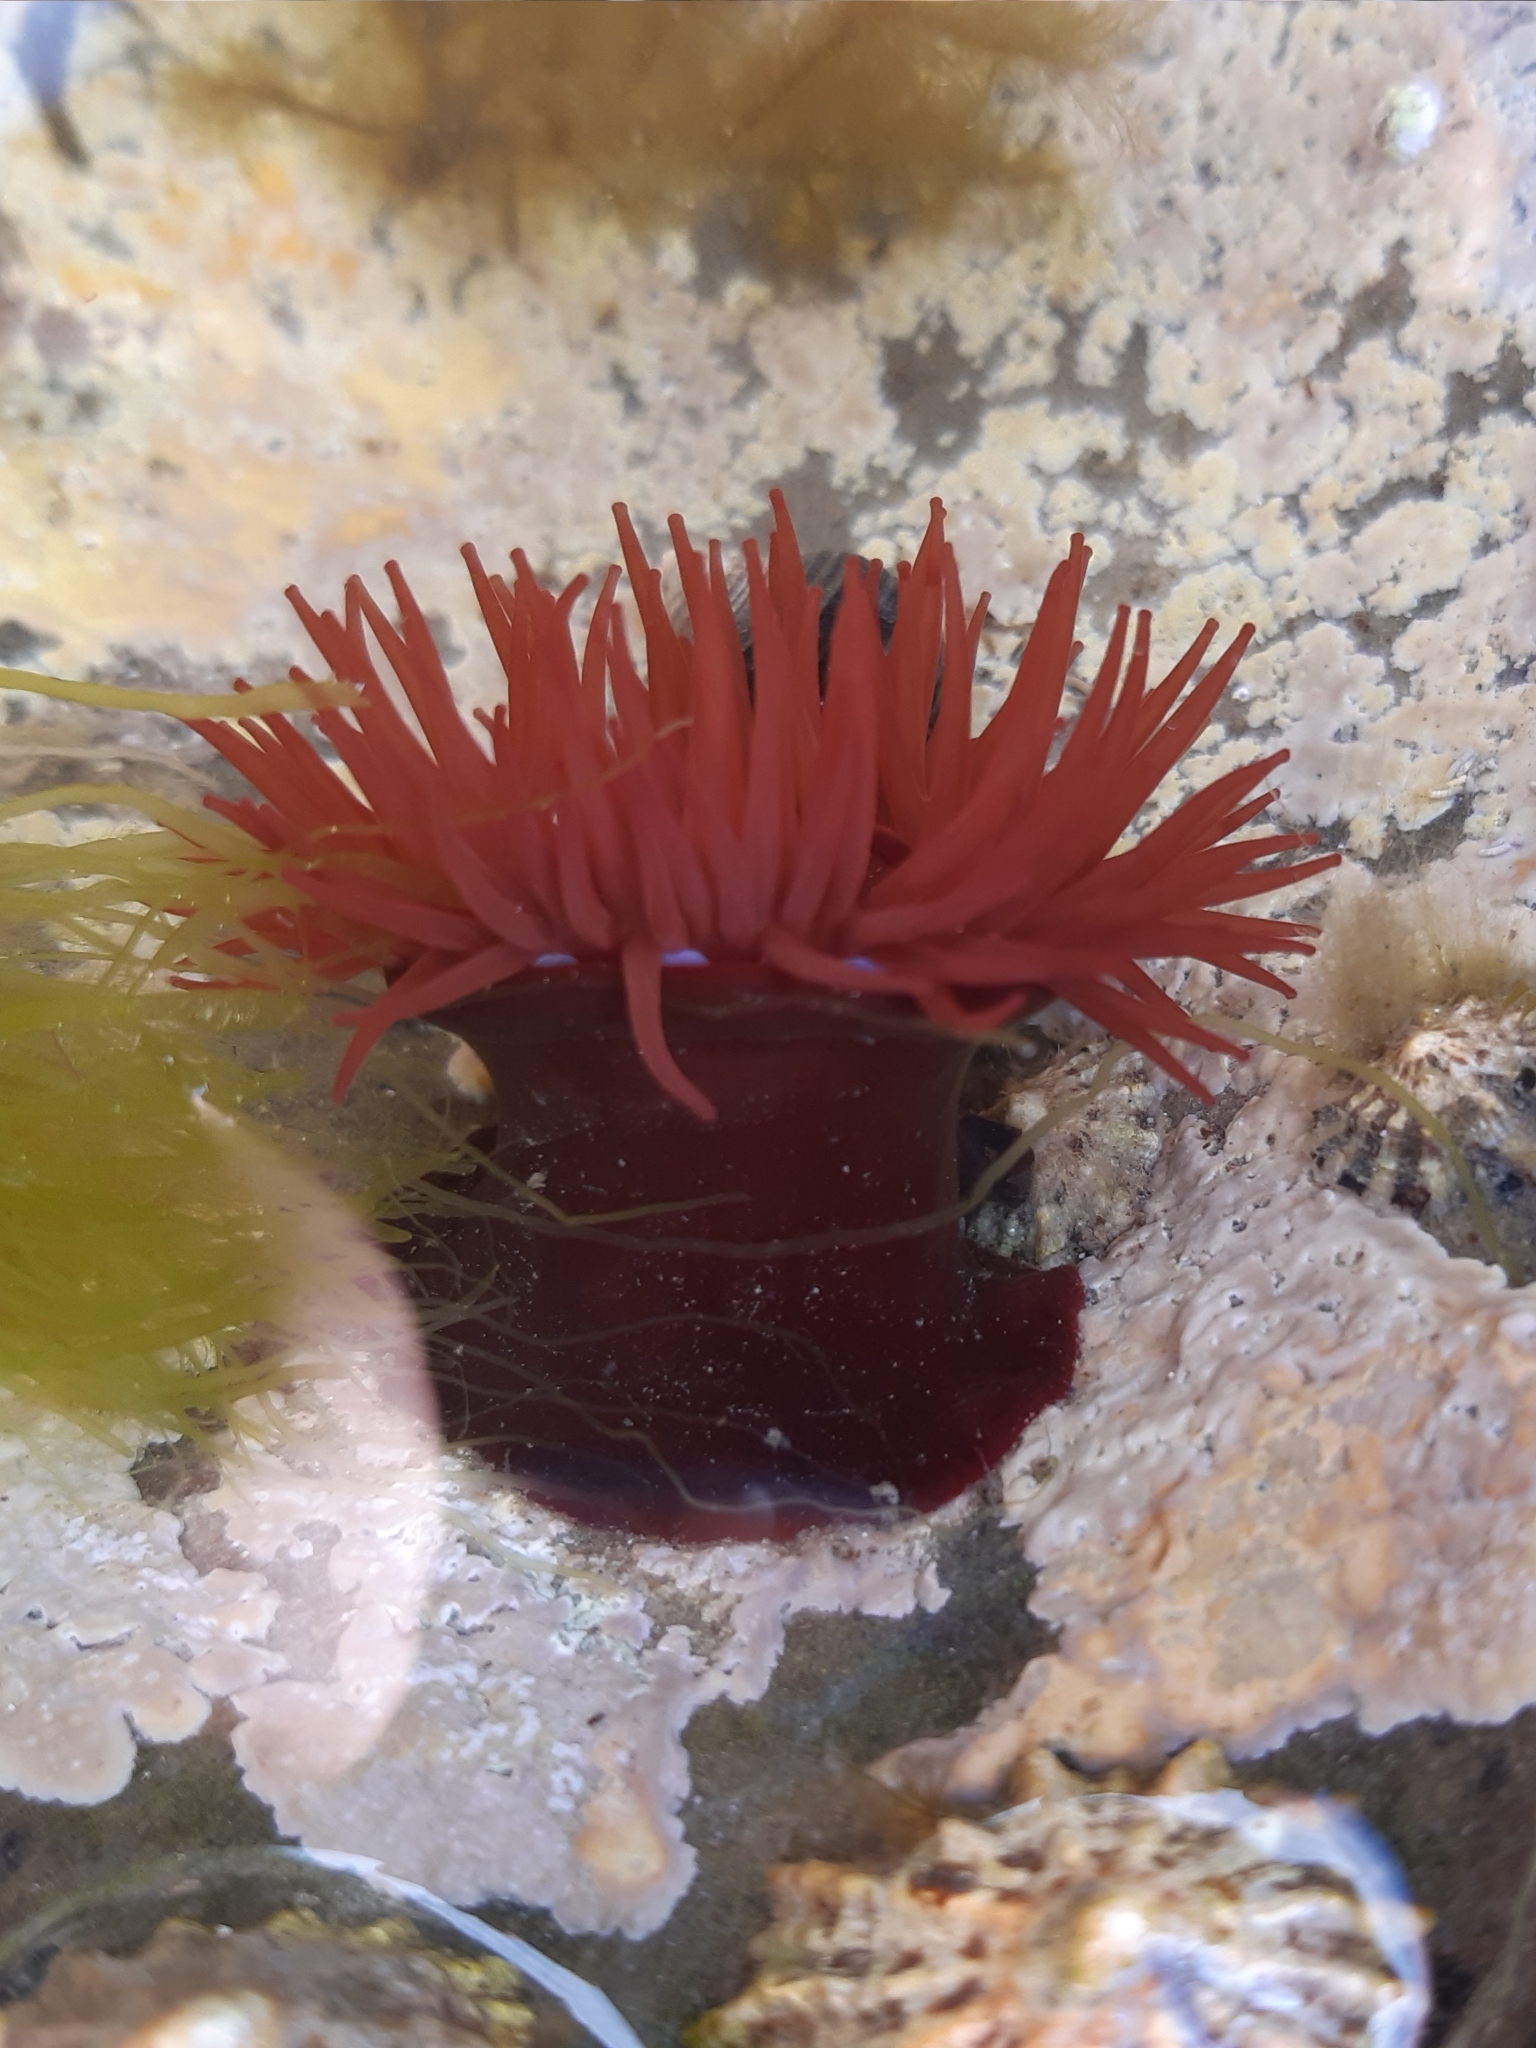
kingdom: Animalia
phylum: Cnidaria
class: Anthozoa
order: Actiniaria
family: Actiniidae
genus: Actinia
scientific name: Actinia equina
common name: Beadlet anemone
